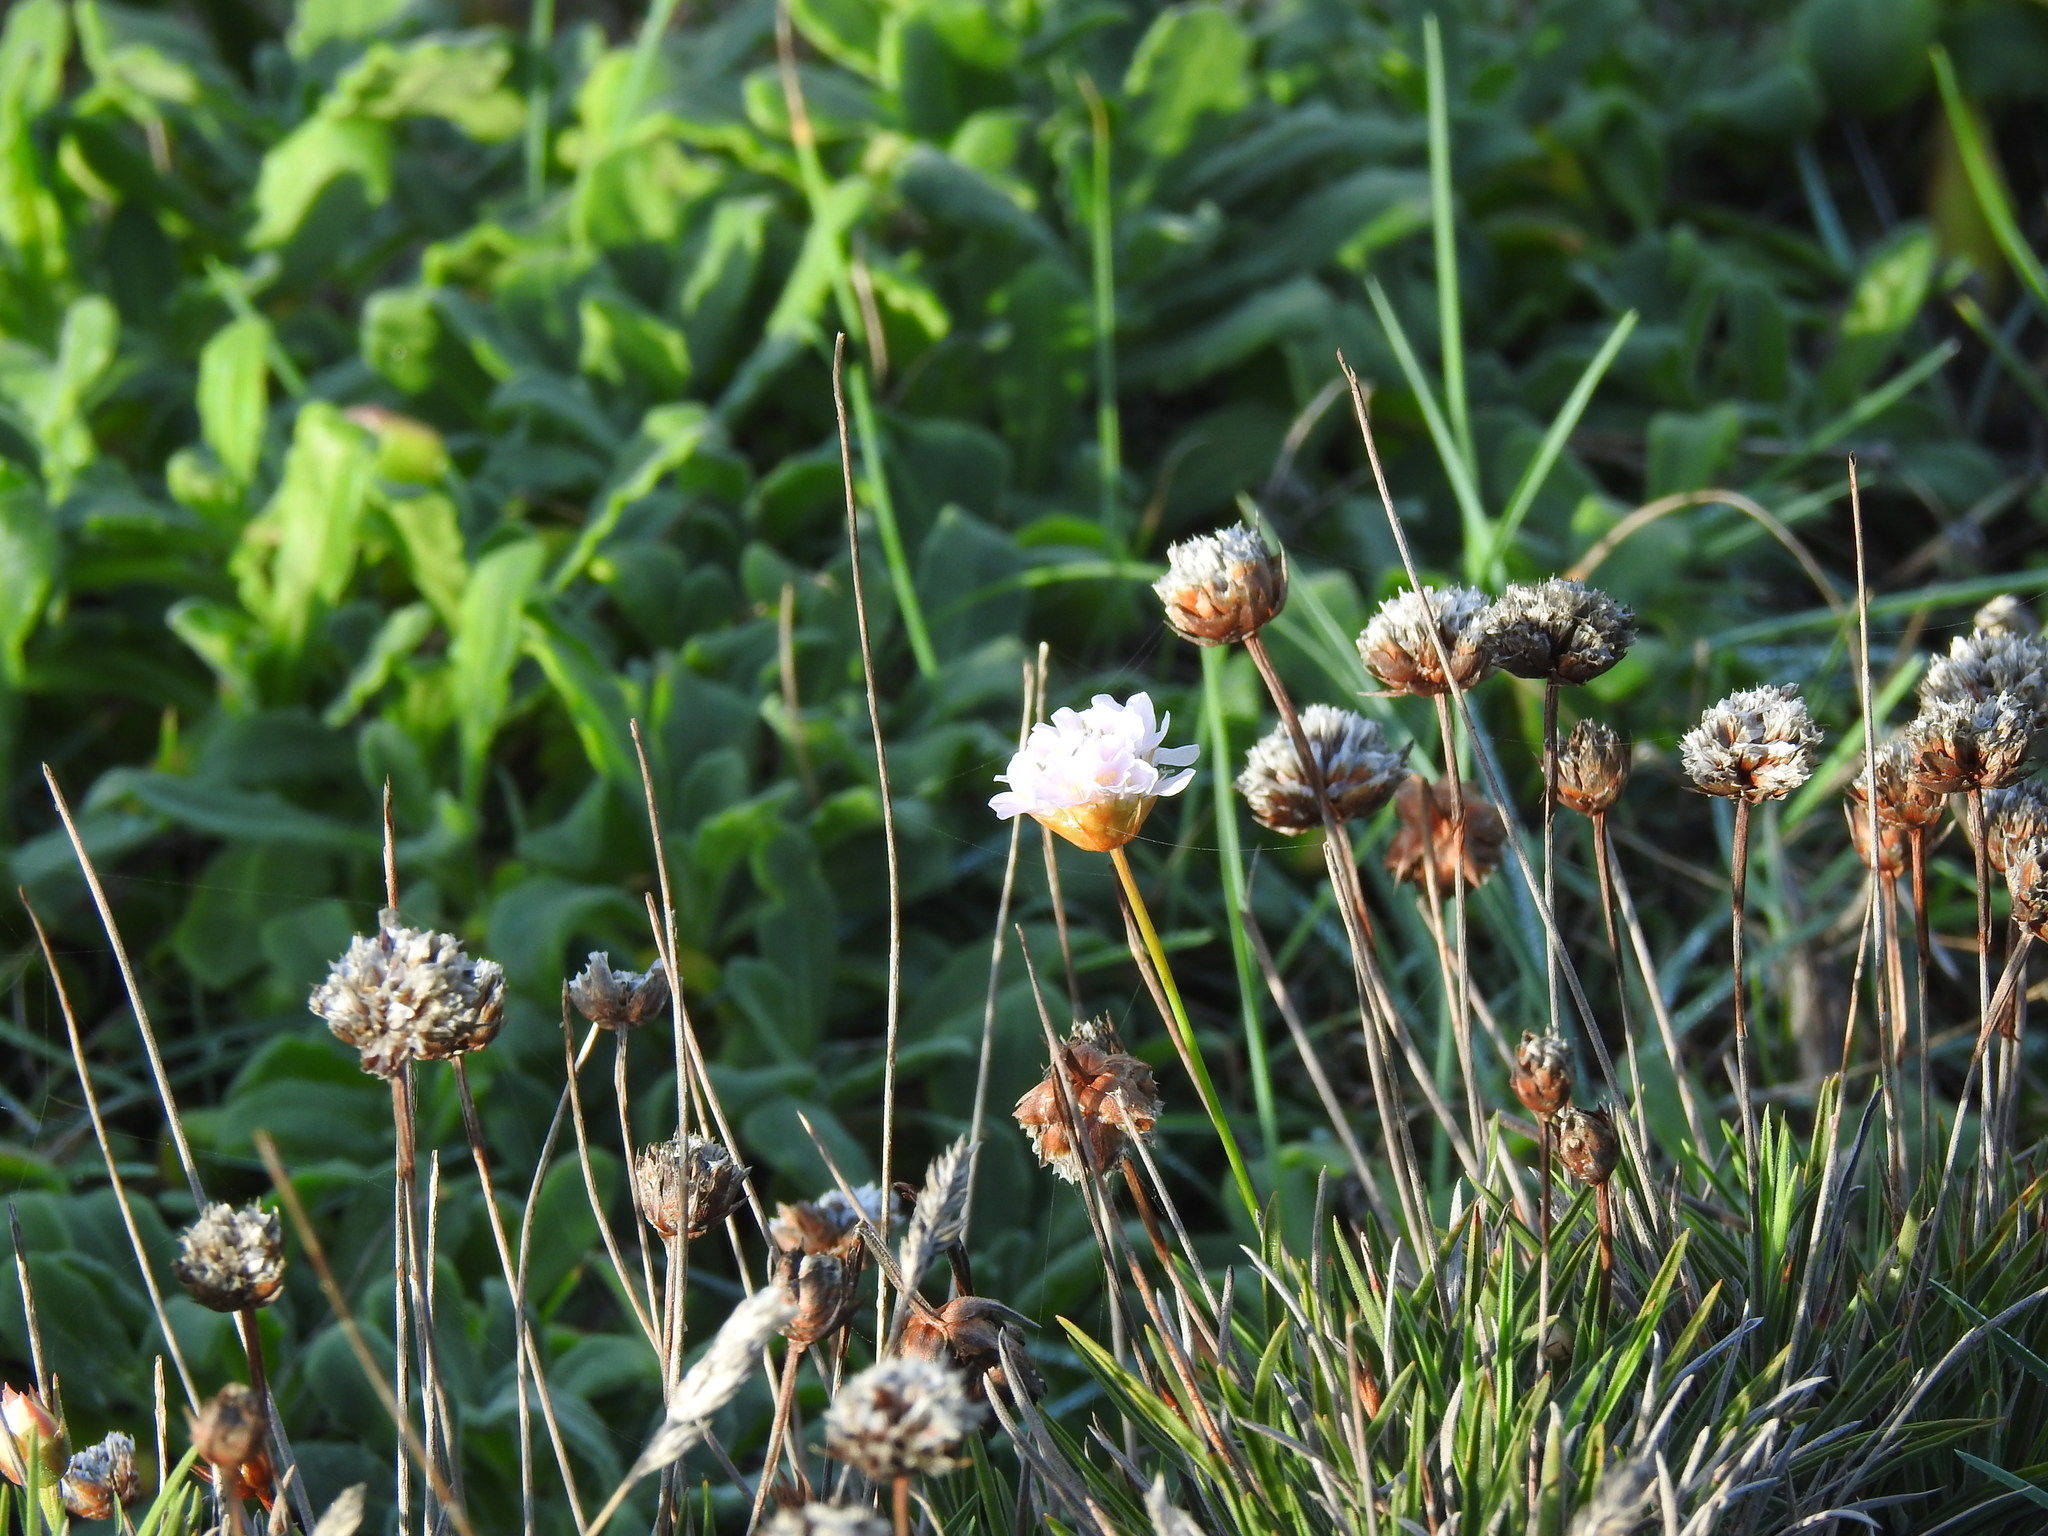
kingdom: Plantae
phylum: Tracheophyta
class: Magnoliopsida
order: Caryophyllales
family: Plumbaginaceae
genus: Armeria
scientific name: Armeria welwitschii
